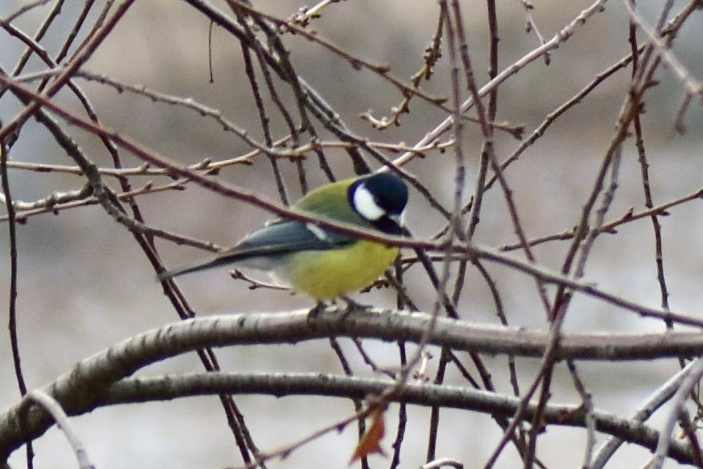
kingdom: Animalia
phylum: Chordata
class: Aves
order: Passeriformes
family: Paridae
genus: Parus
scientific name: Parus major
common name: Great tit
